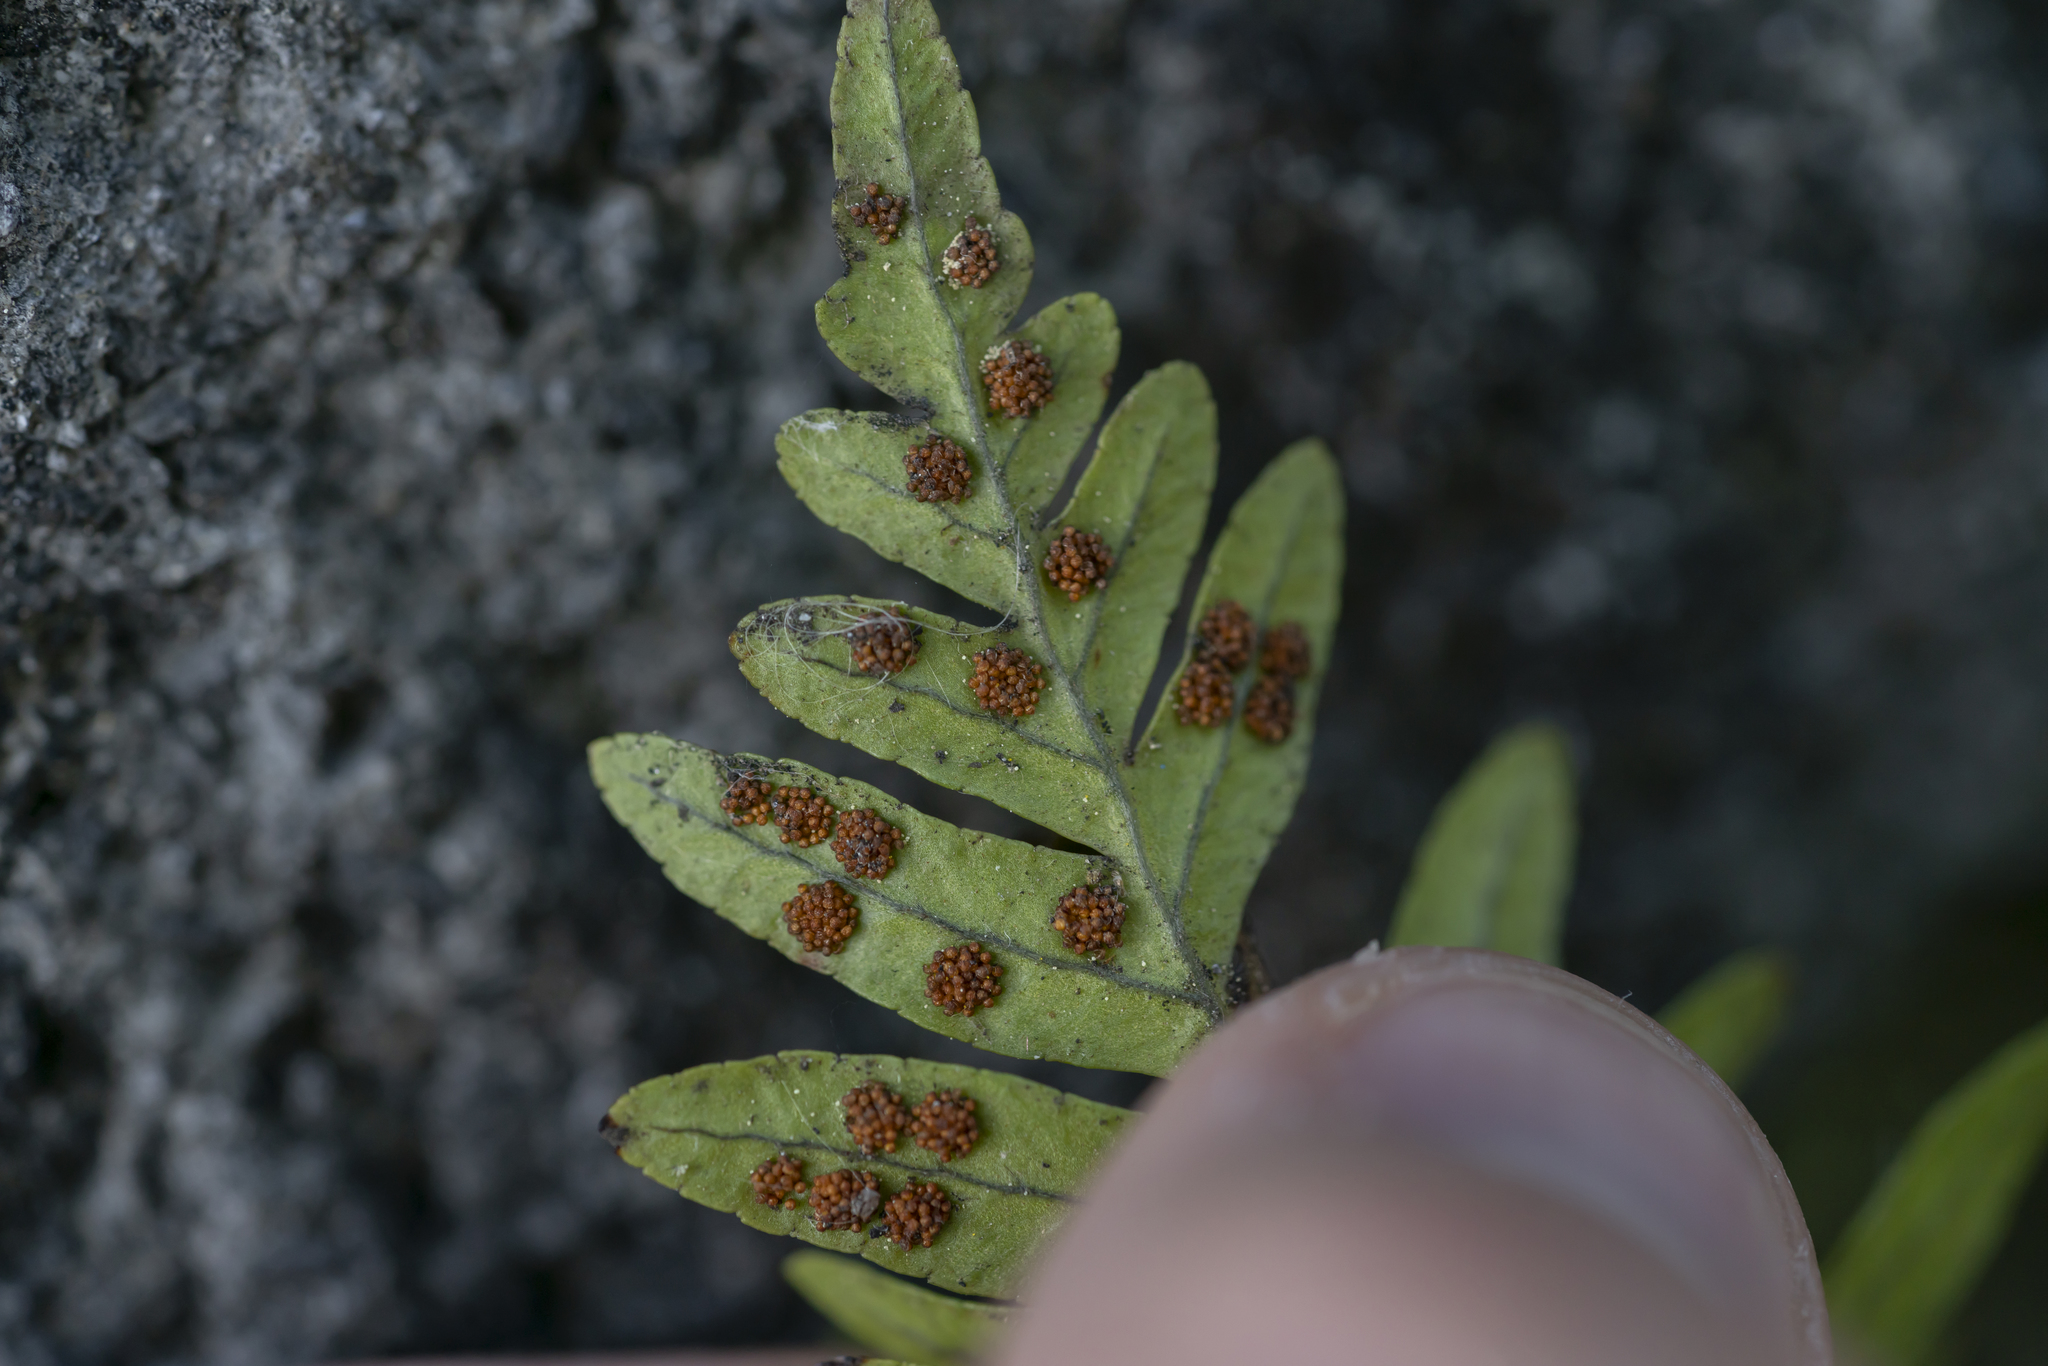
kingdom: Plantae
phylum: Tracheophyta
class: Polypodiopsida
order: Polypodiales
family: Polypodiaceae
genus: Polypodium
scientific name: Polypodium vulgare
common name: Common polypody
